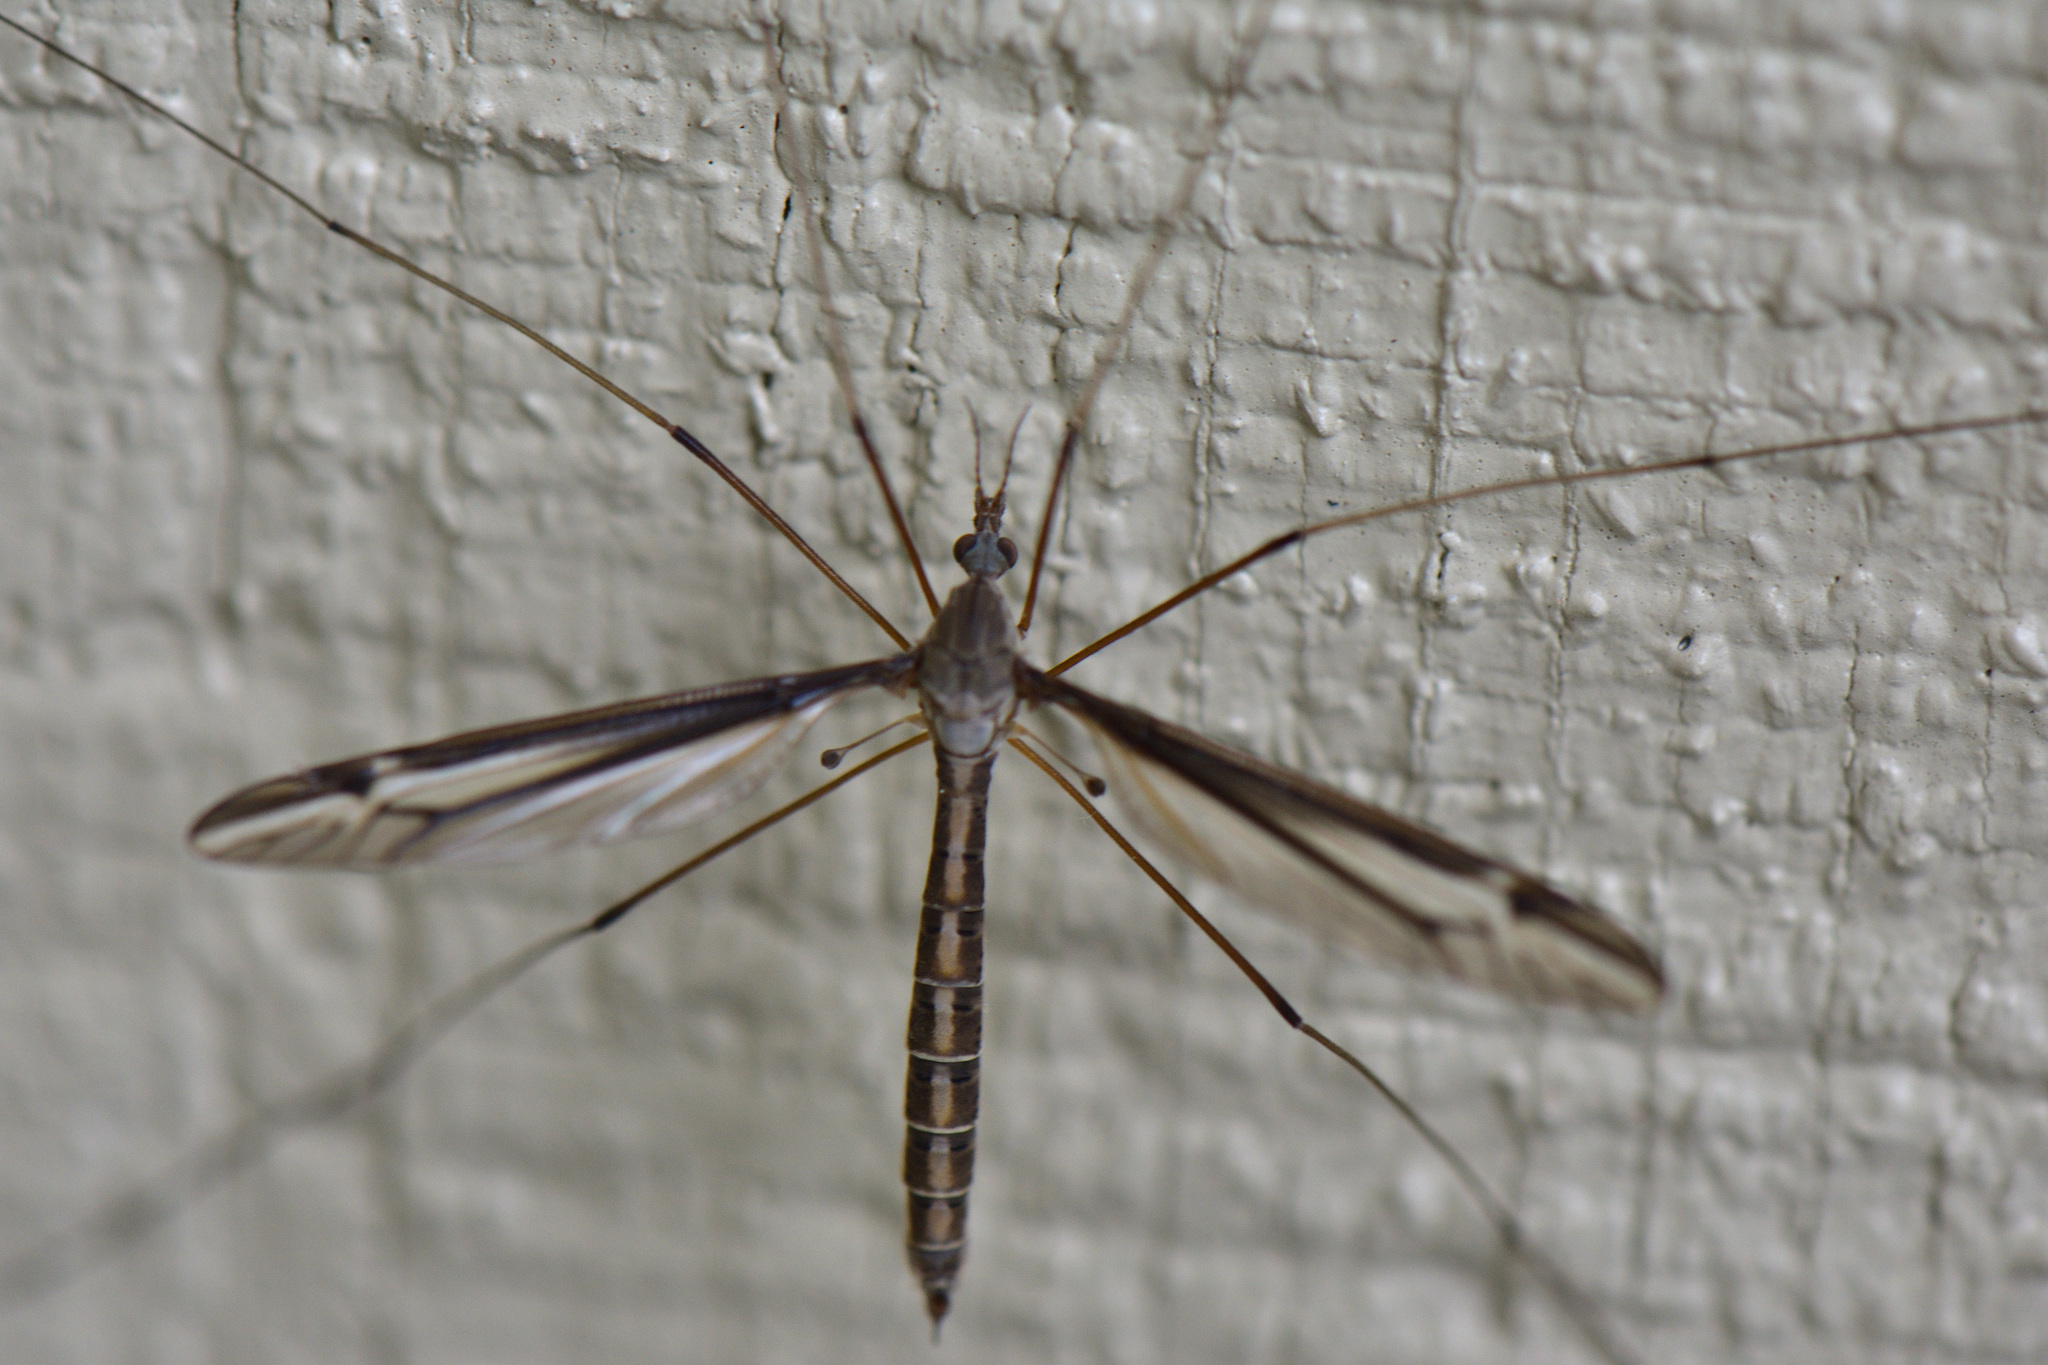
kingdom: Animalia
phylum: Arthropoda
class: Insecta
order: Diptera
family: Tipulidae
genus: Tipula
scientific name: Tipula furca
